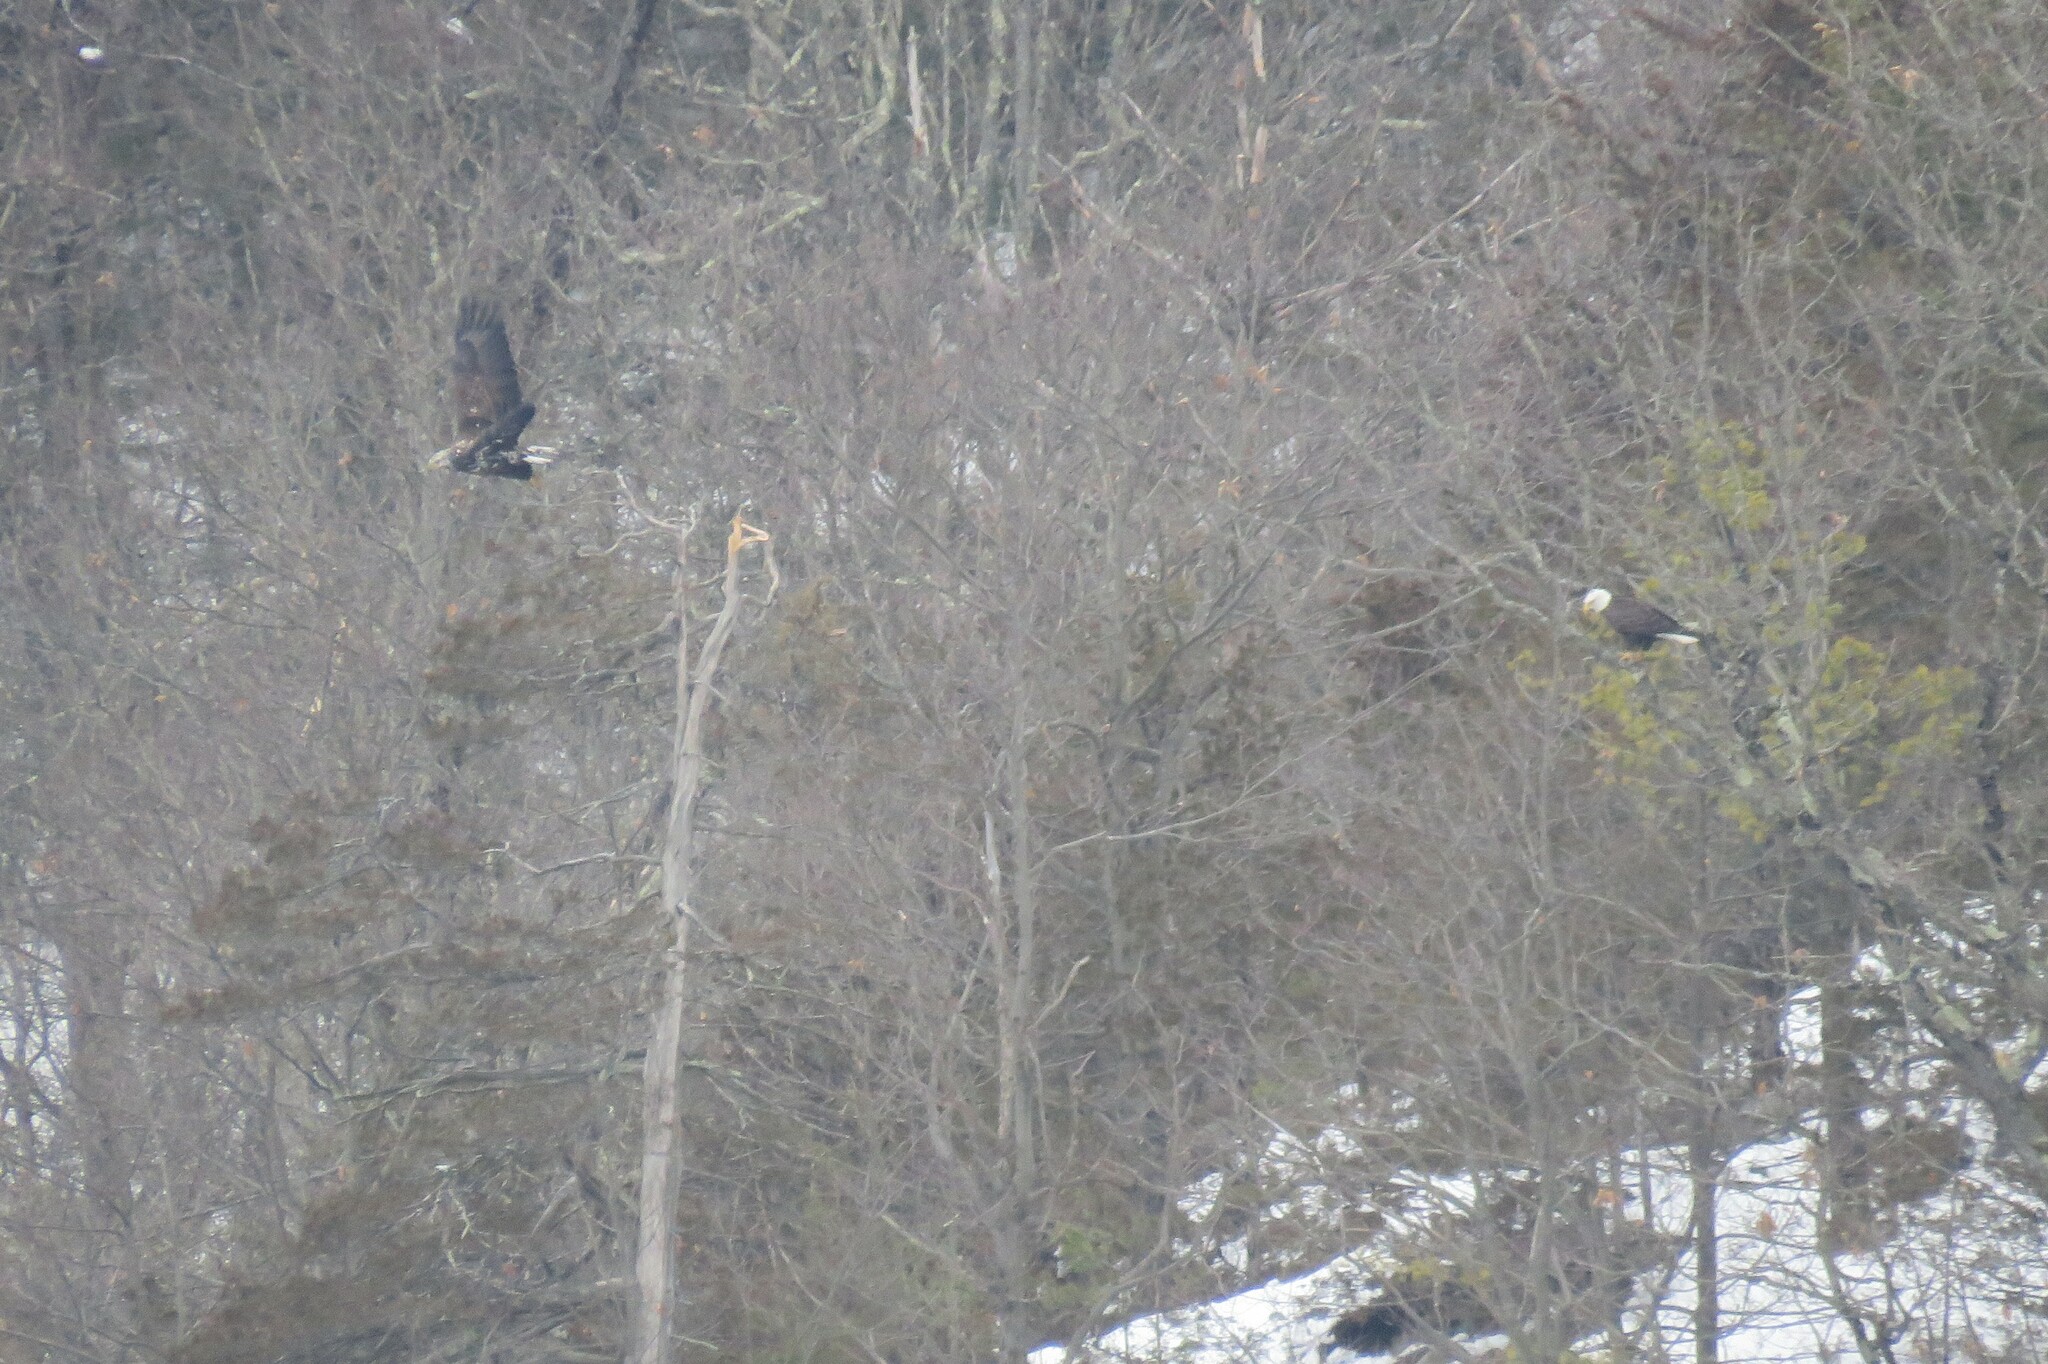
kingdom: Animalia
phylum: Chordata
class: Aves
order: Accipitriformes
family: Accipitridae
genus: Haliaeetus
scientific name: Haliaeetus leucocephalus
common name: Bald eagle
